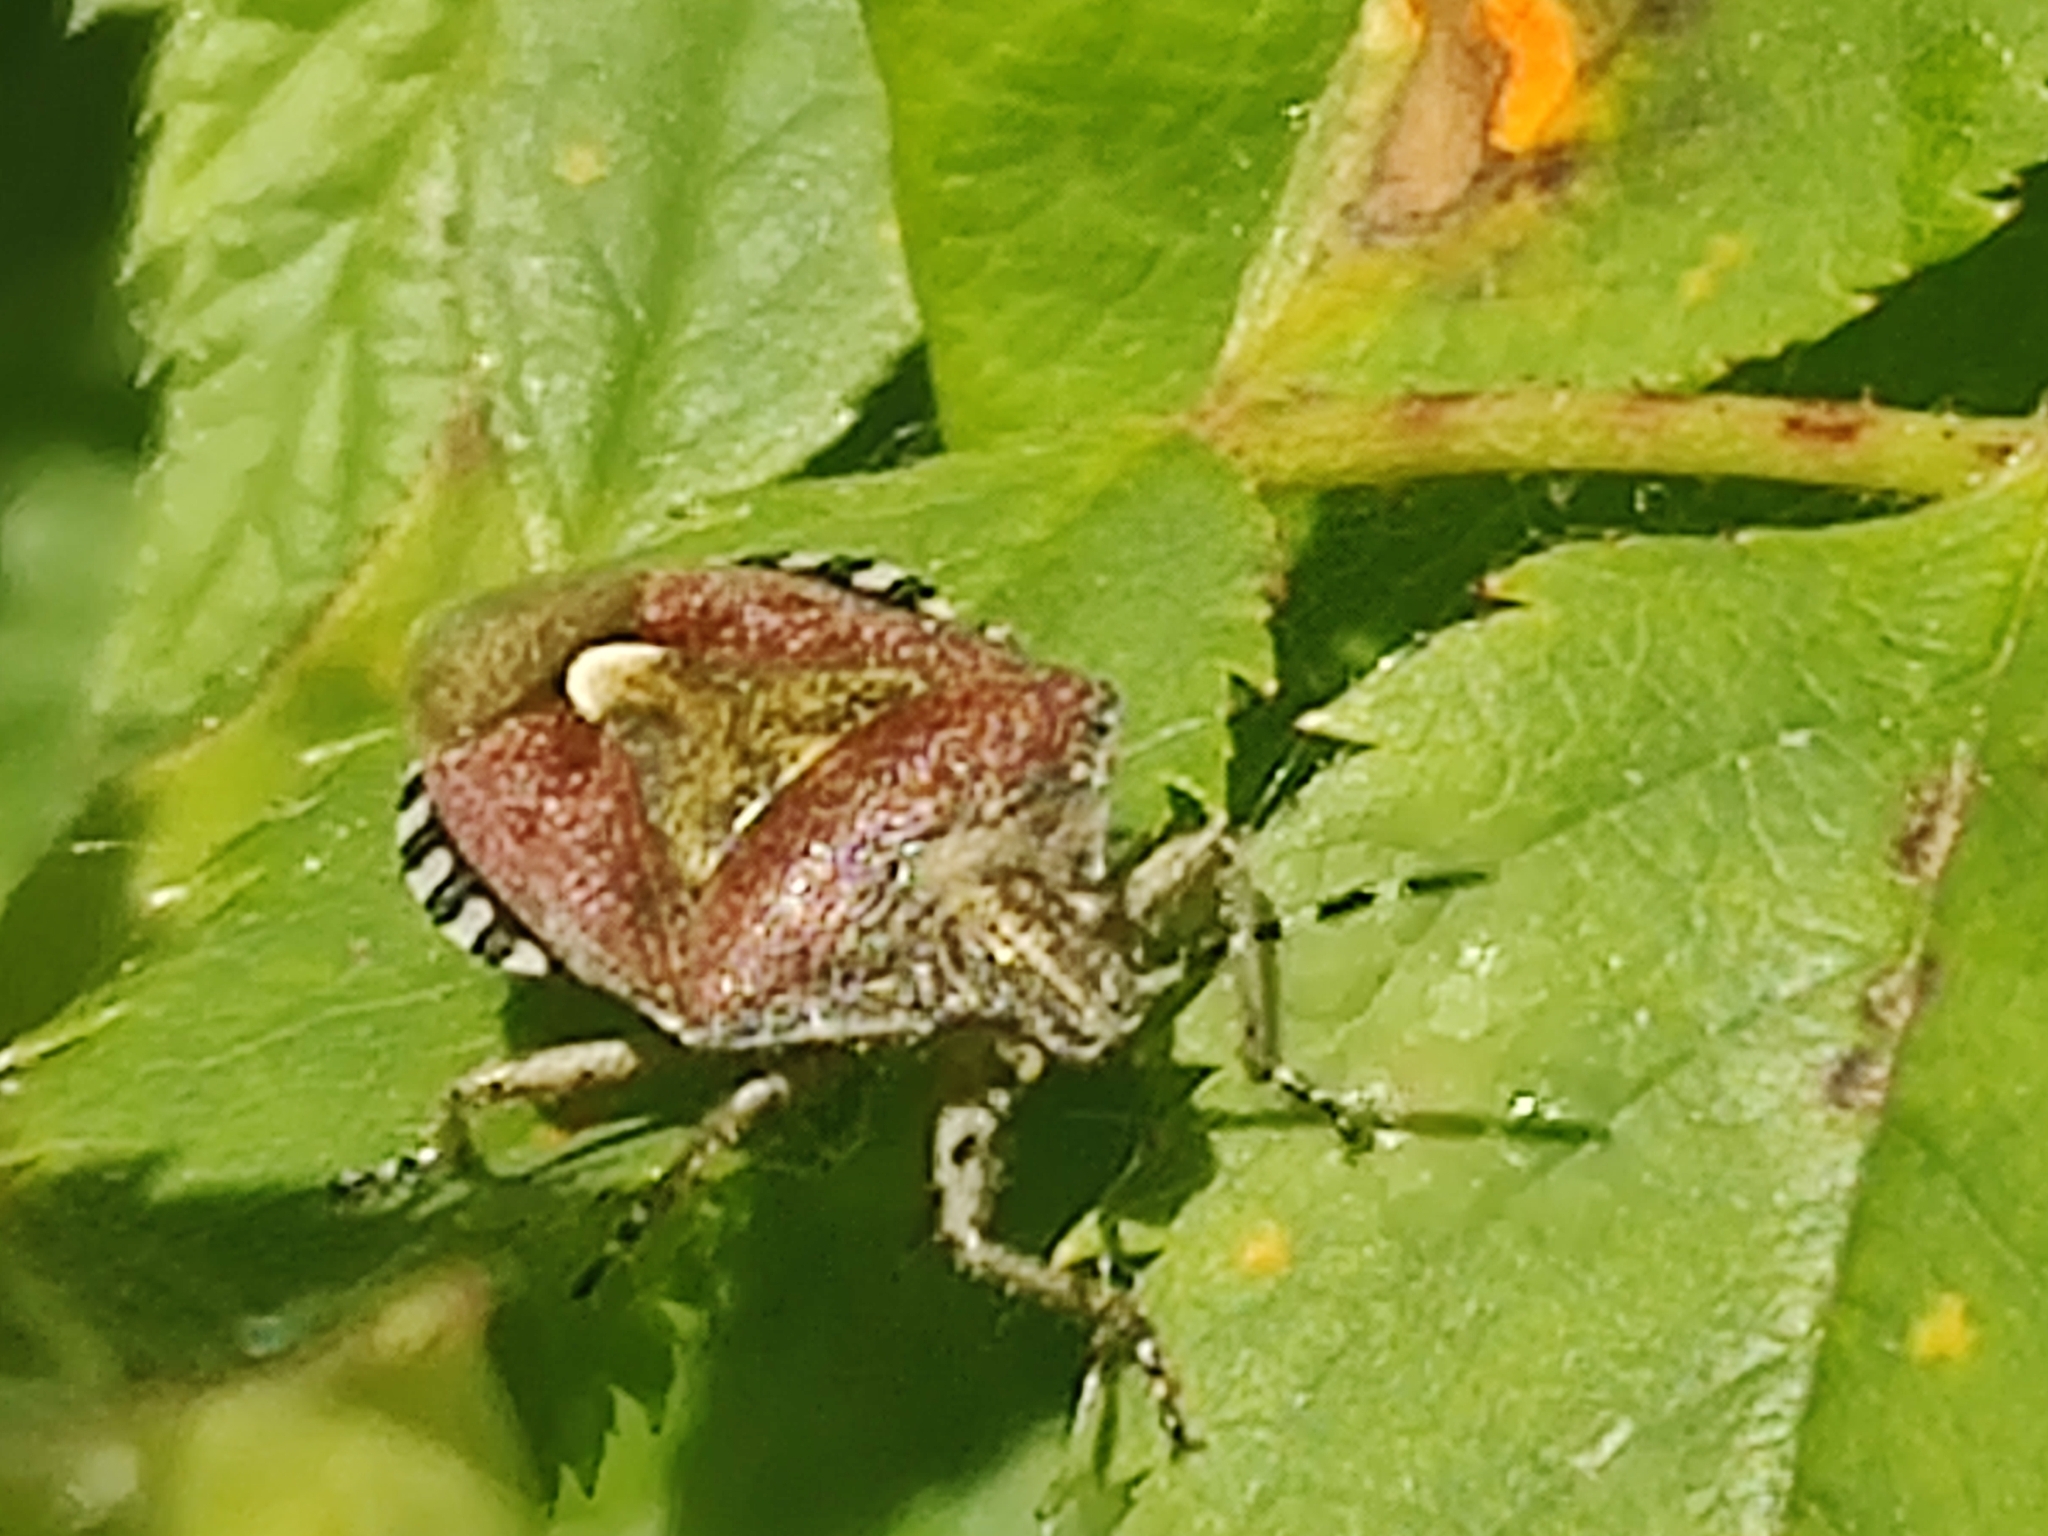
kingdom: Animalia
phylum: Arthropoda
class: Insecta
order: Hemiptera
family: Pentatomidae
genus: Dolycoris
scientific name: Dolycoris baccarum
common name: Sloe bug
